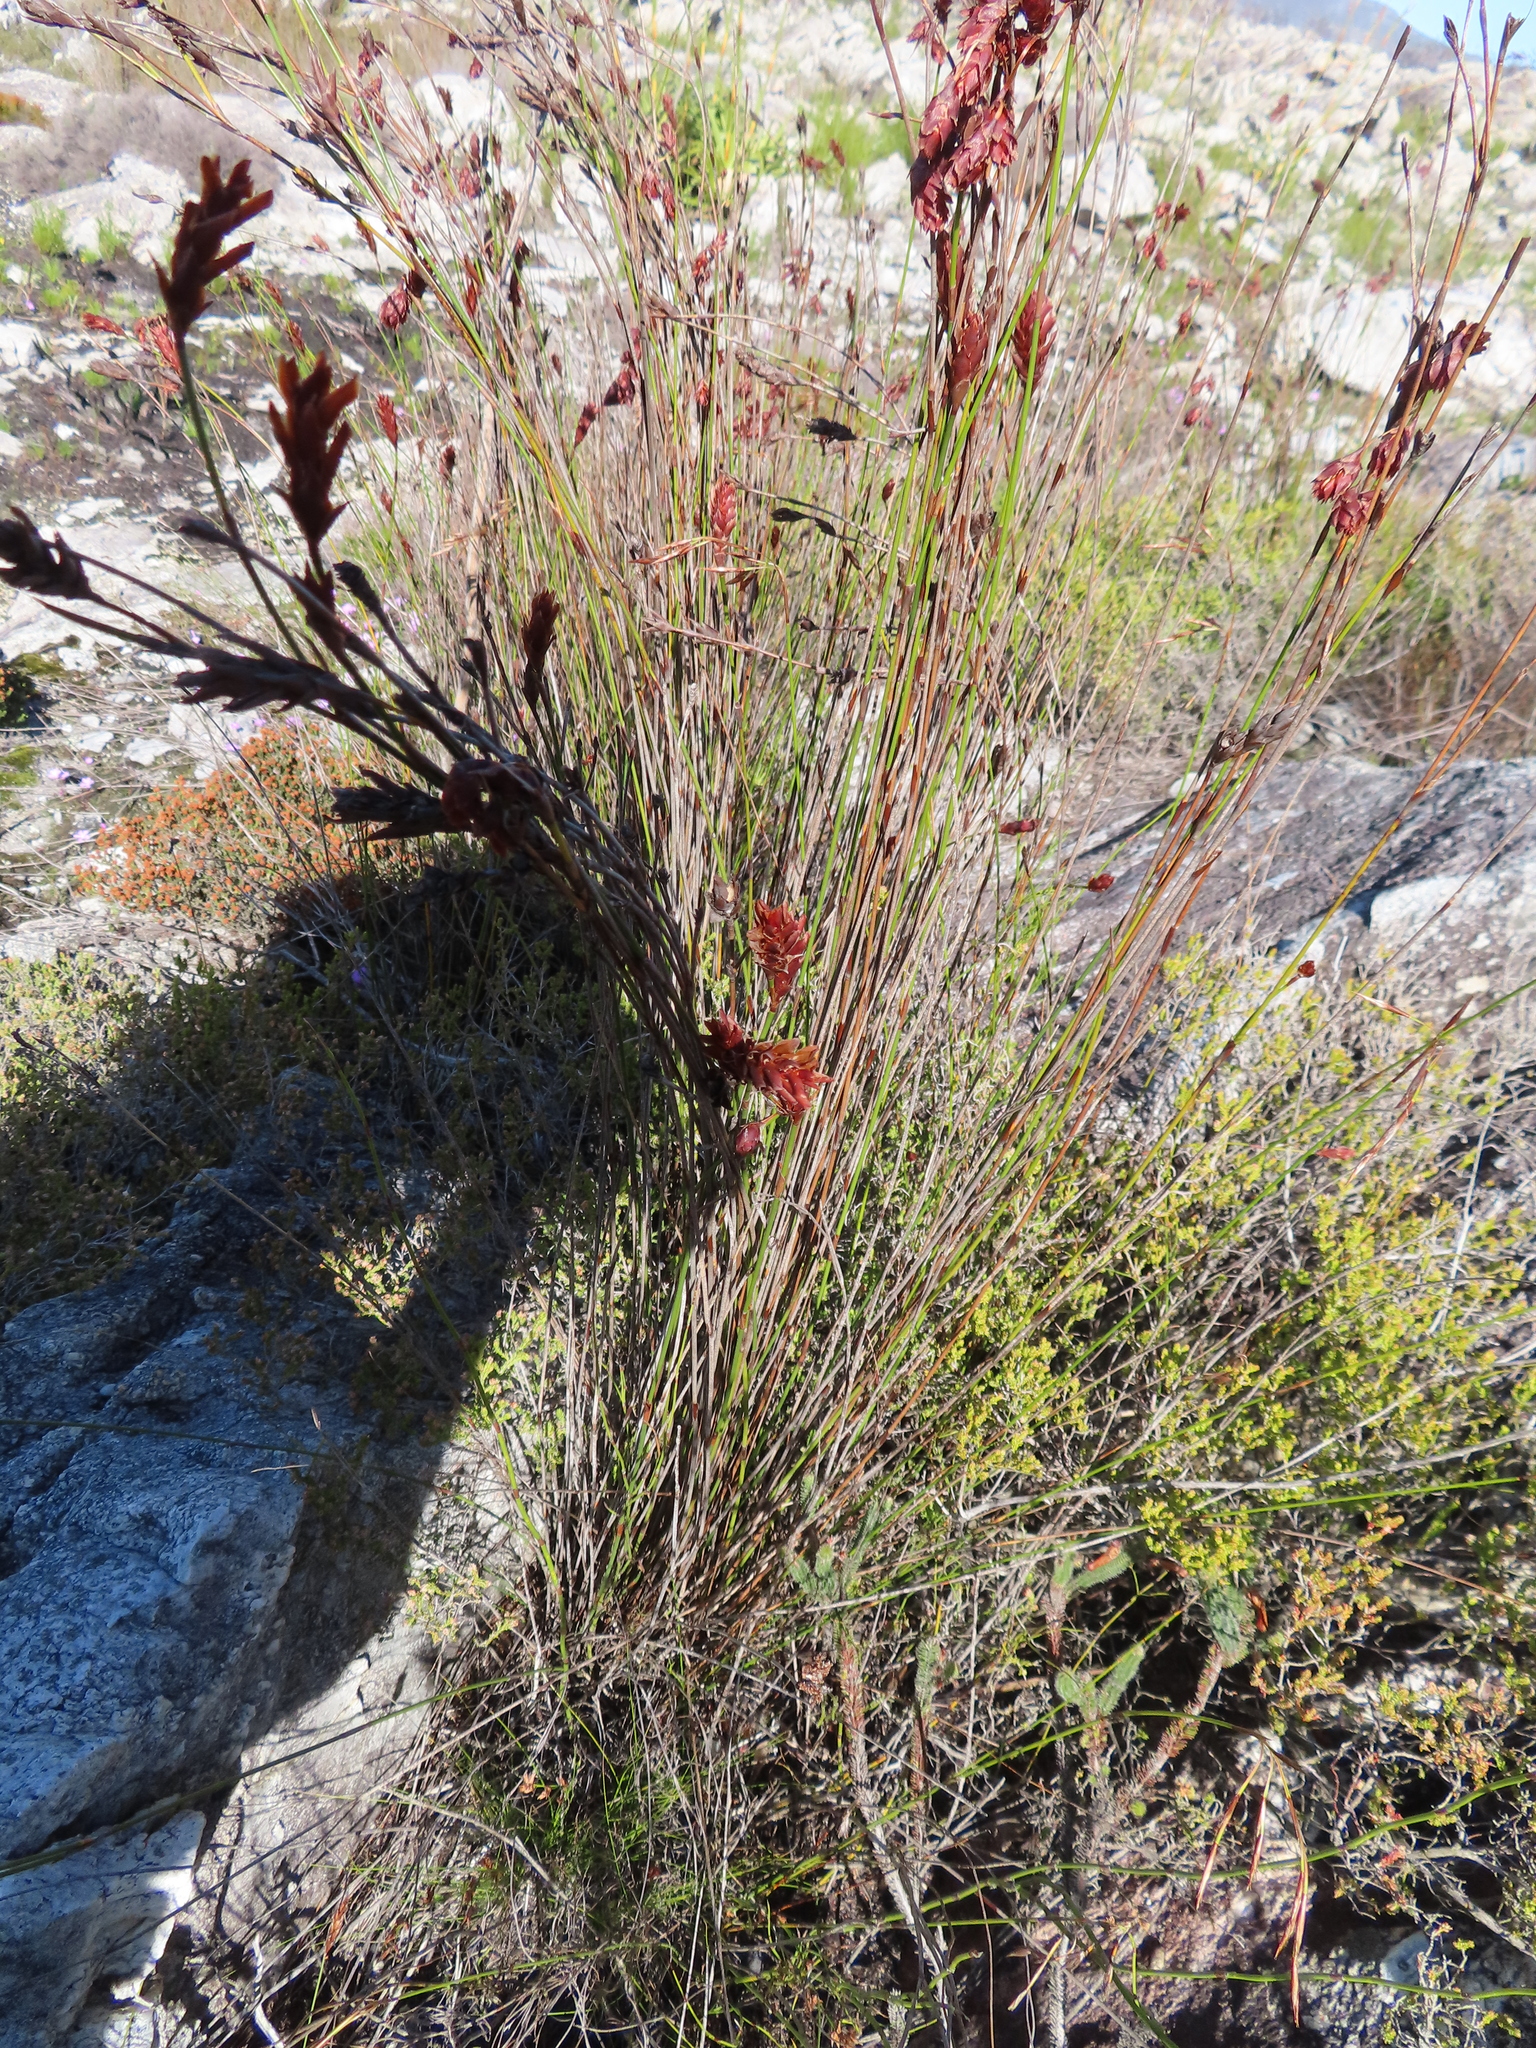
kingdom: Plantae
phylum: Tracheophyta
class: Liliopsida
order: Poales
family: Restionaceae
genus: Restio
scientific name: Restio bifarius
